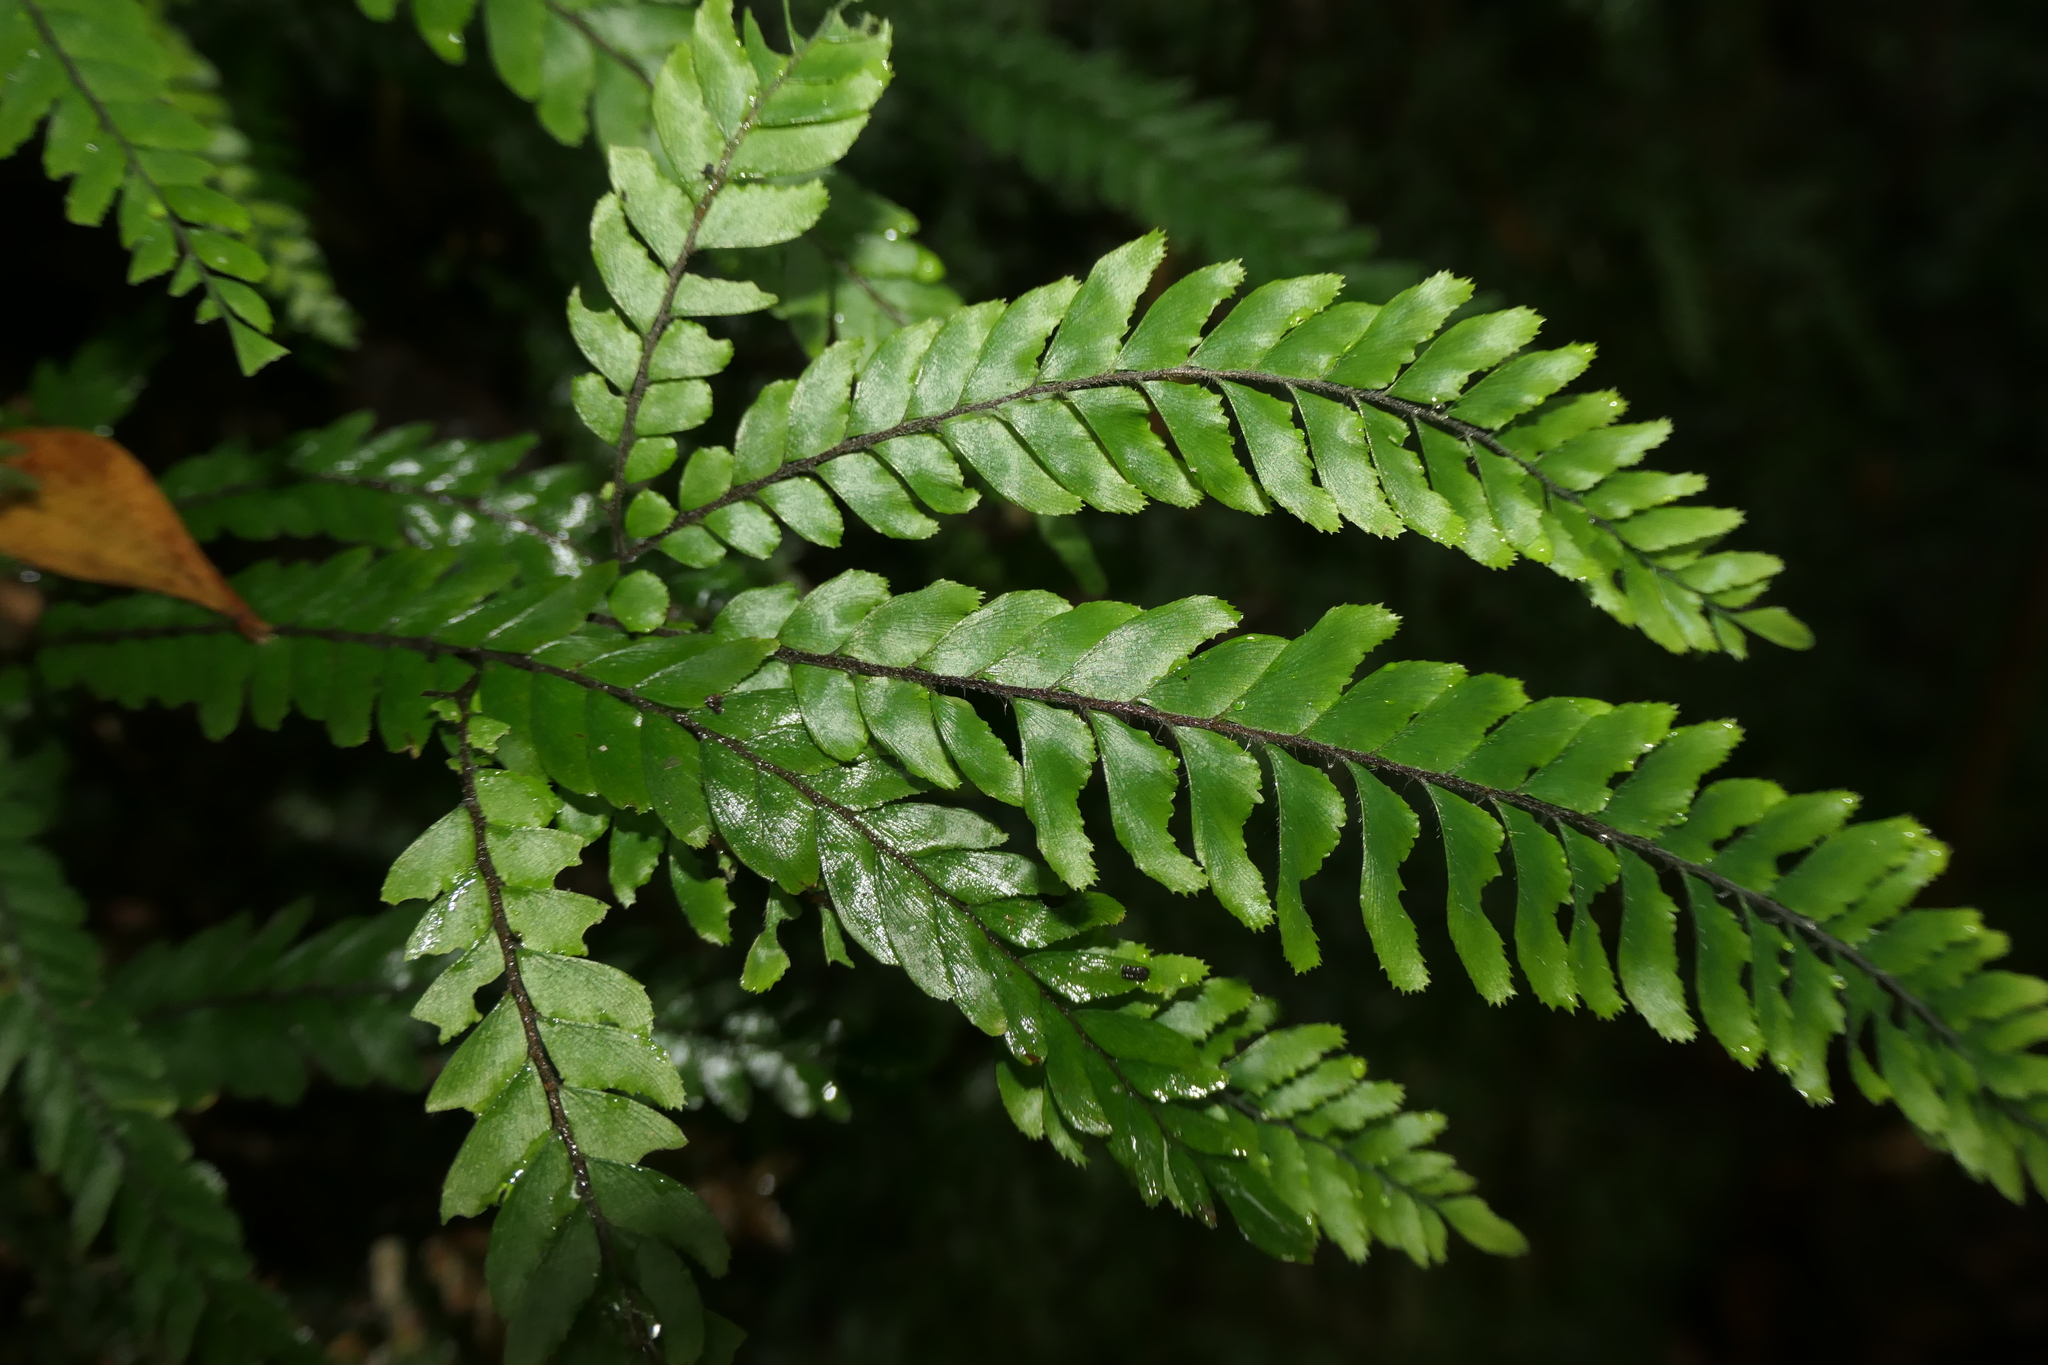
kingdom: Plantae
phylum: Tracheophyta
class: Polypodiopsida
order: Polypodiales
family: Pteridaceae
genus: Adiantum
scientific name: Adiantum hispidulum
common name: Rough maidenhair
